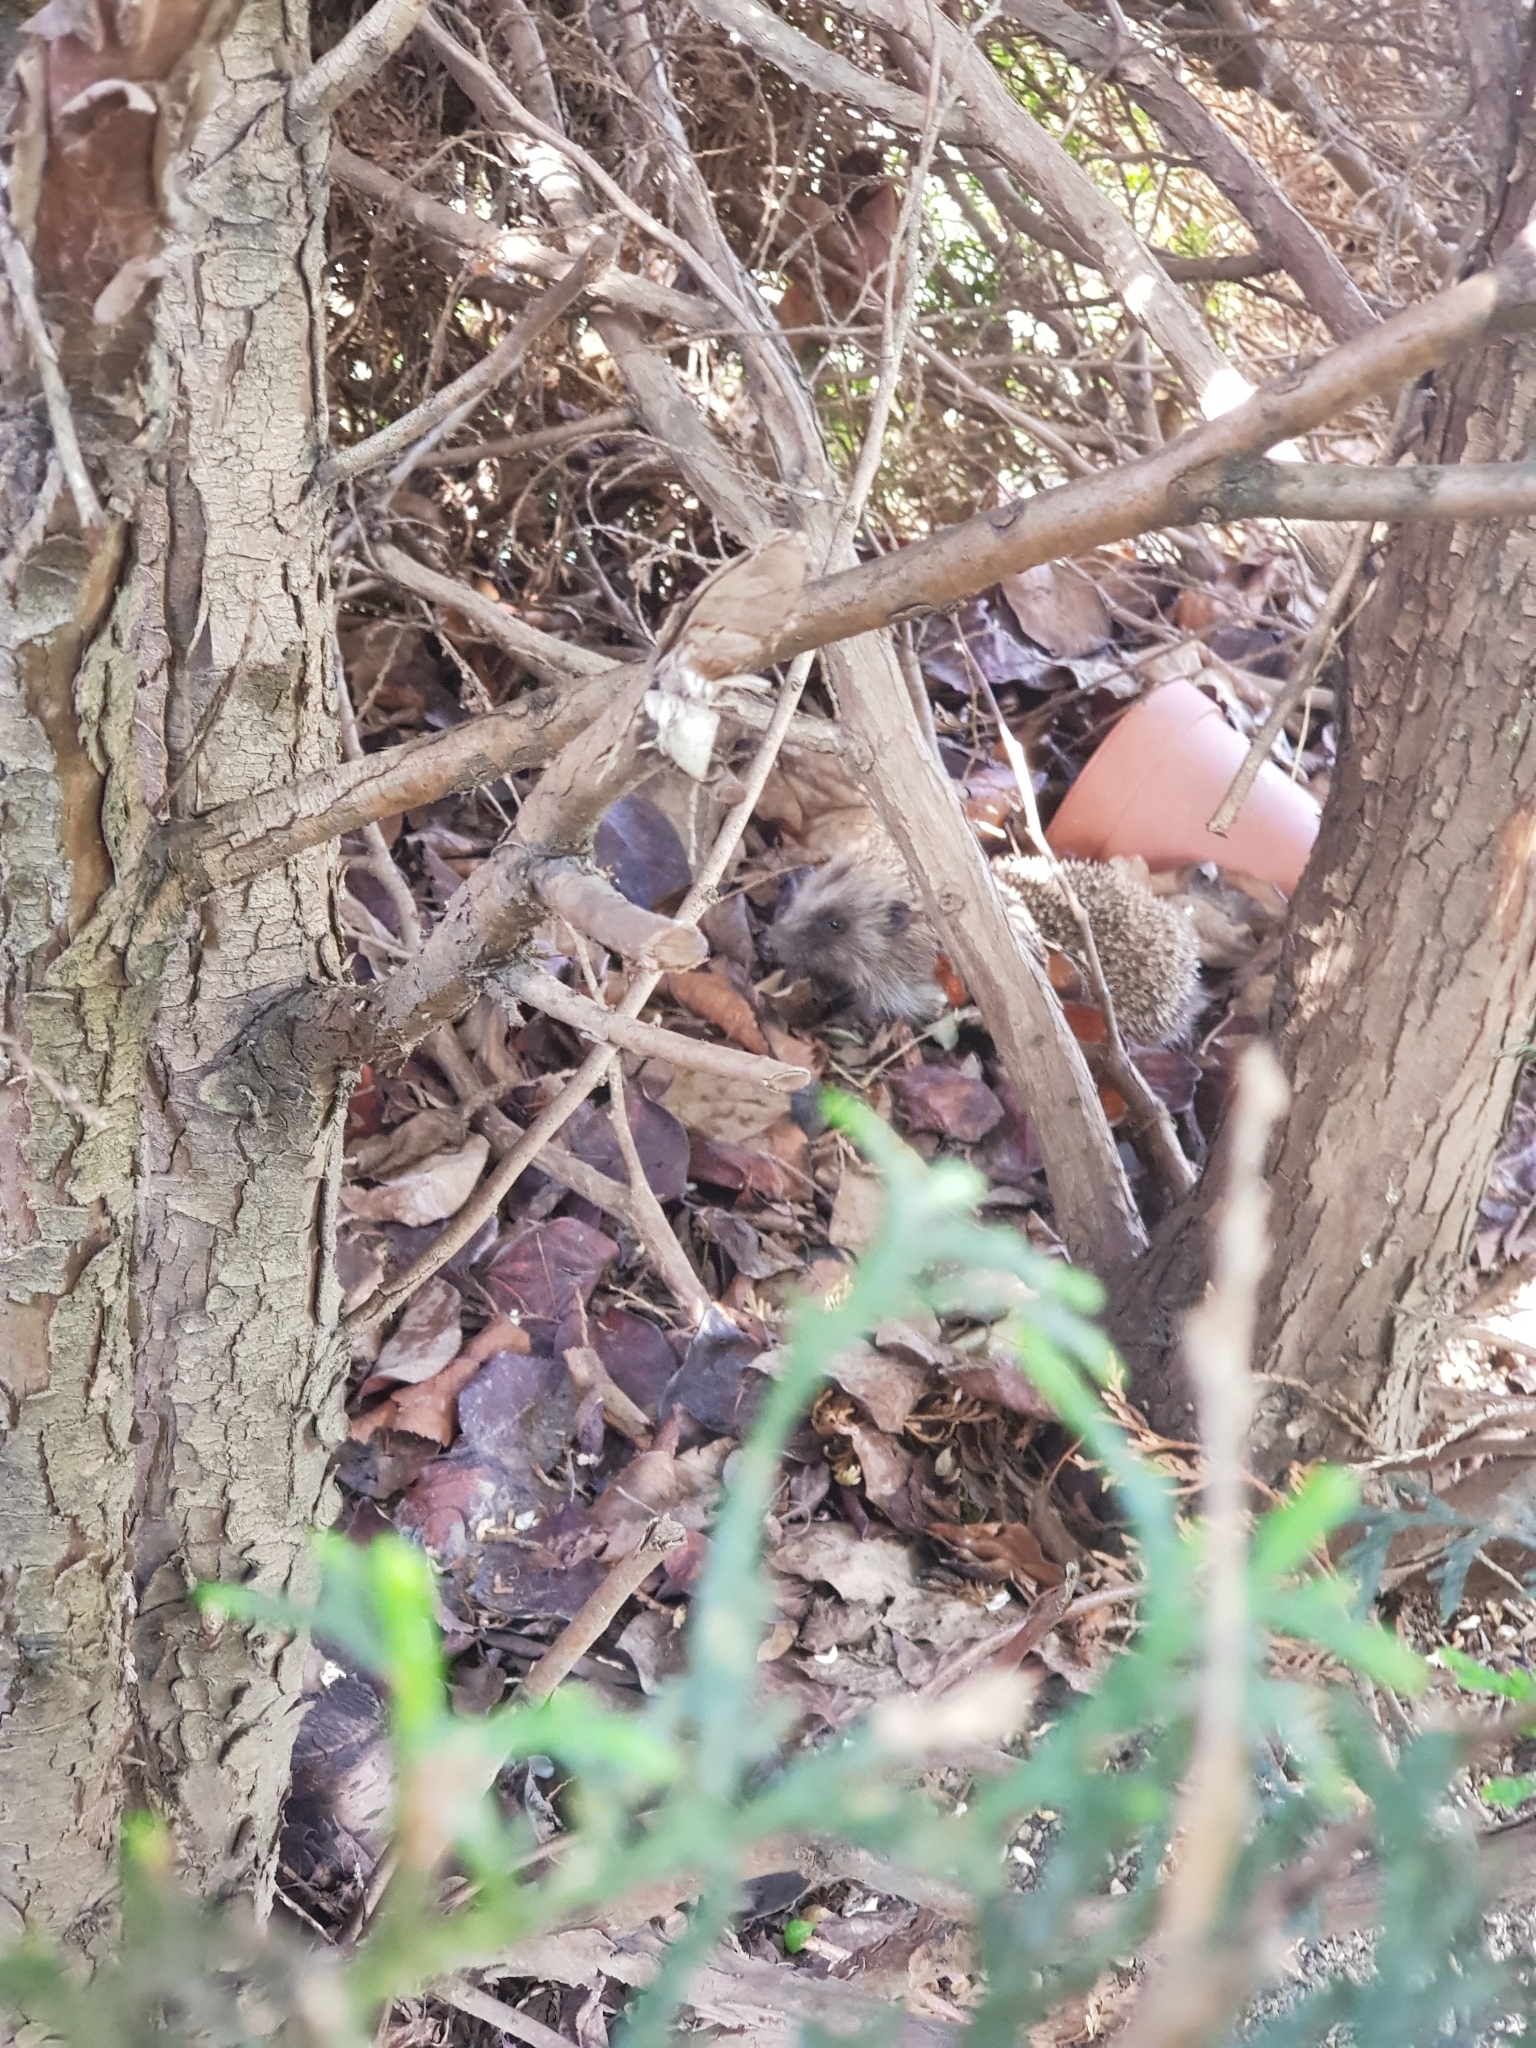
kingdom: Animalia
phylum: Chordata
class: Mammalia
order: Erinaceomorpha
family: Erinaceidae
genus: Erinaceus
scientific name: Erinaceus europaeus
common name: West european hedgehog
